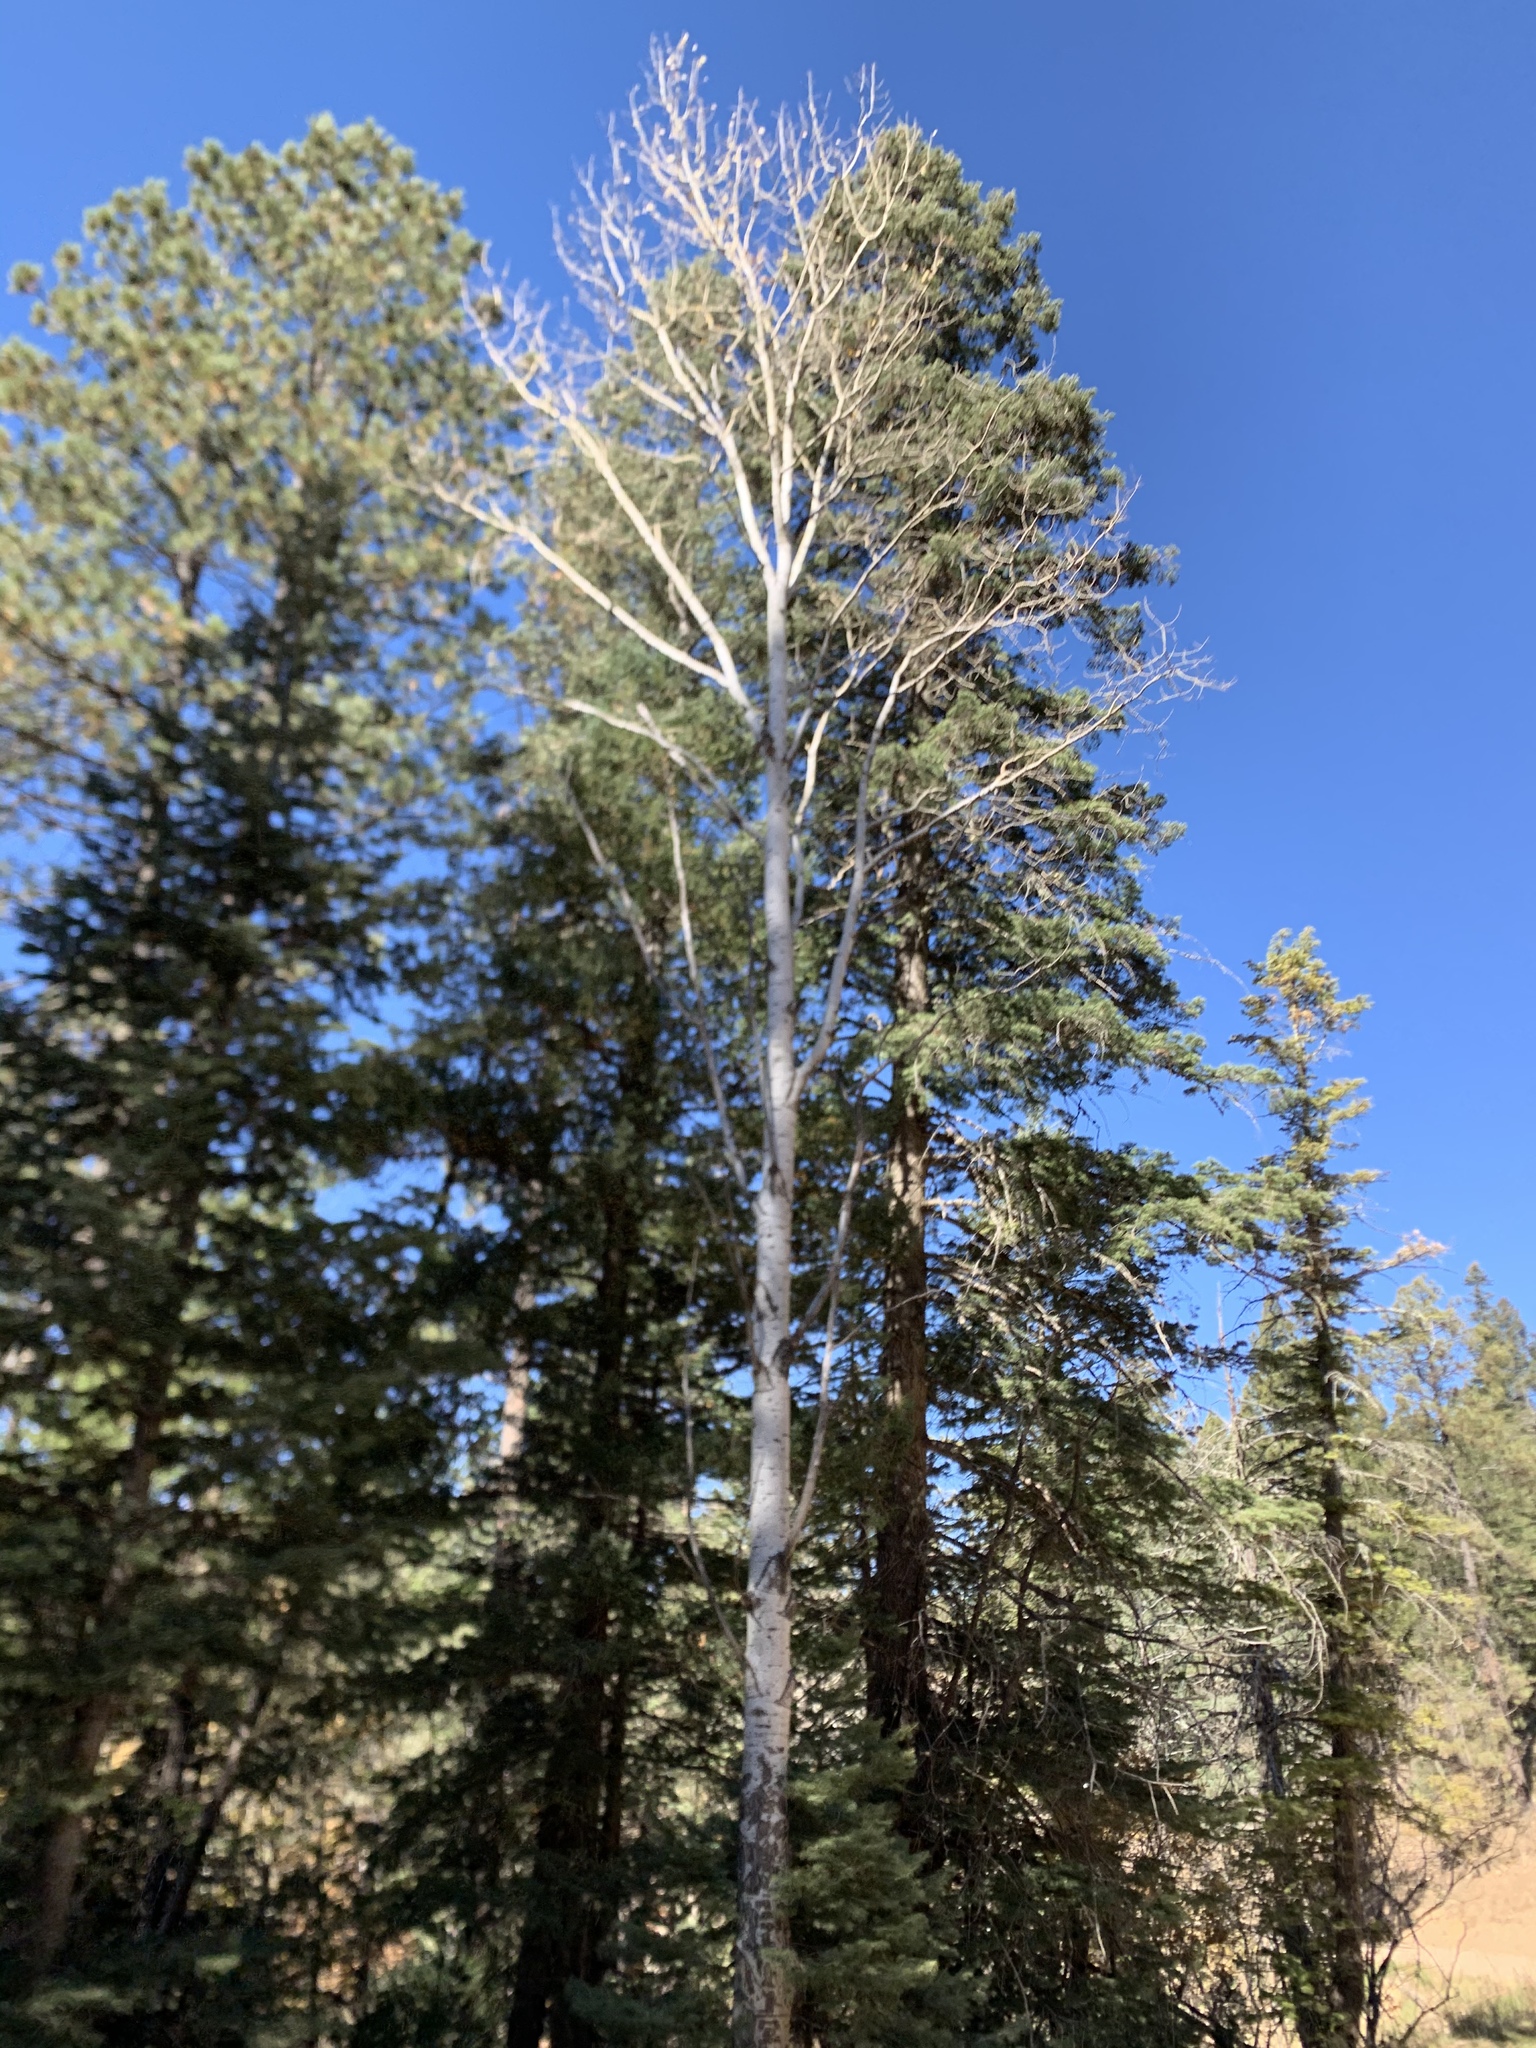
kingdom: Plantae
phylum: Tracheophyta
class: Magnoliopsida
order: Malpighiales
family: Salicaceae
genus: Populus
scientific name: Populus tremuloides
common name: Quaking aspen
